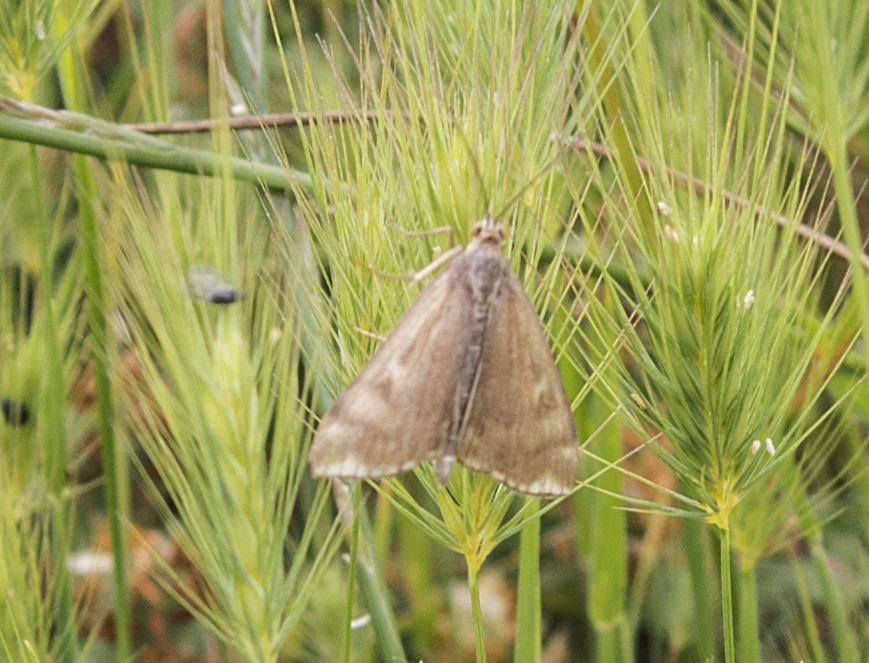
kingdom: Animalia
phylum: Arthropoda
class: Insecta
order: Lepidoptera
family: Crambidae
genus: Loxostege
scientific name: Loxostege sticticalis
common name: Crambid moth
